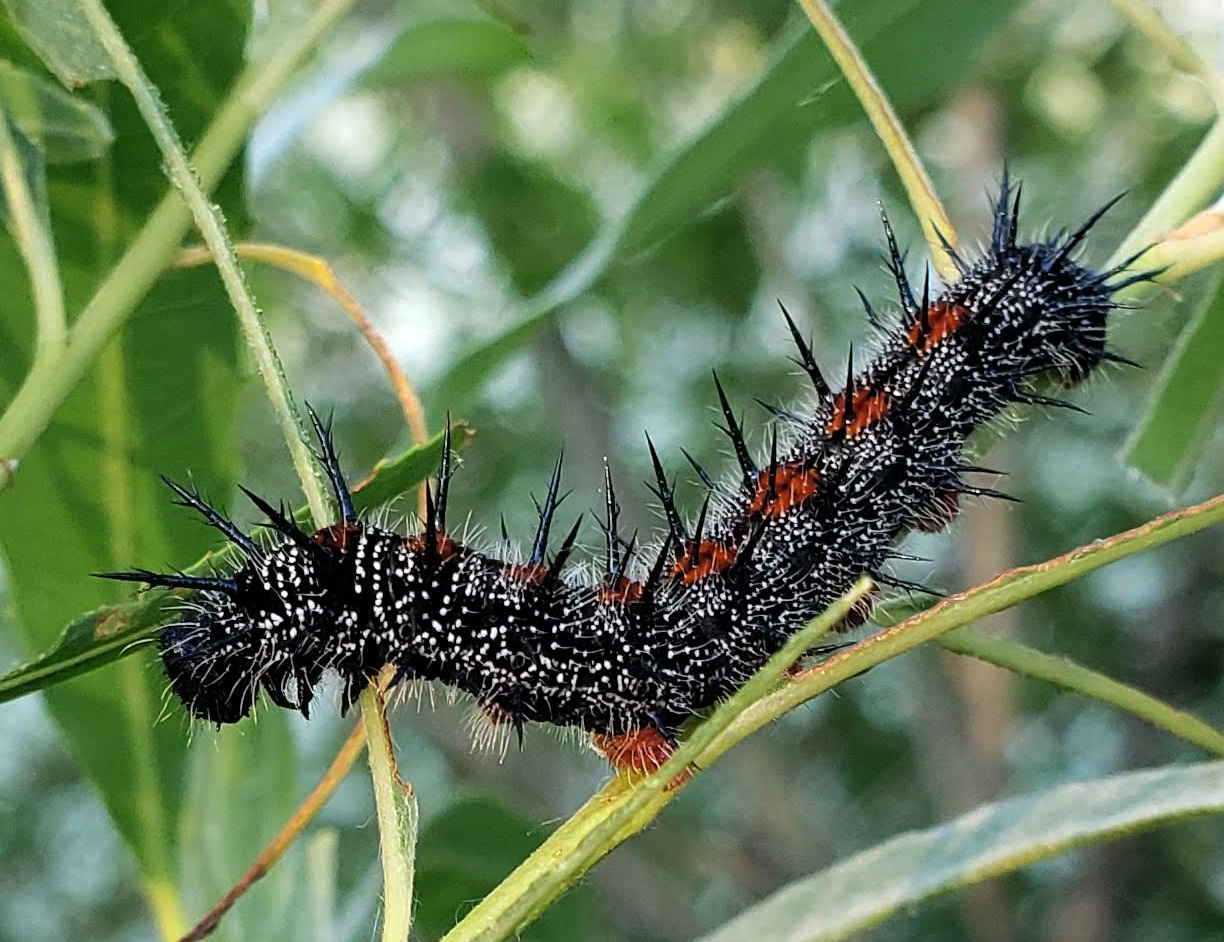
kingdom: Animalia
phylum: Arthropoda
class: Insecta
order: Lepidoptera
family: Nymphalidae
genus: Nymphalis
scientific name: Nymphalis antiopa
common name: Camberwell beauty
